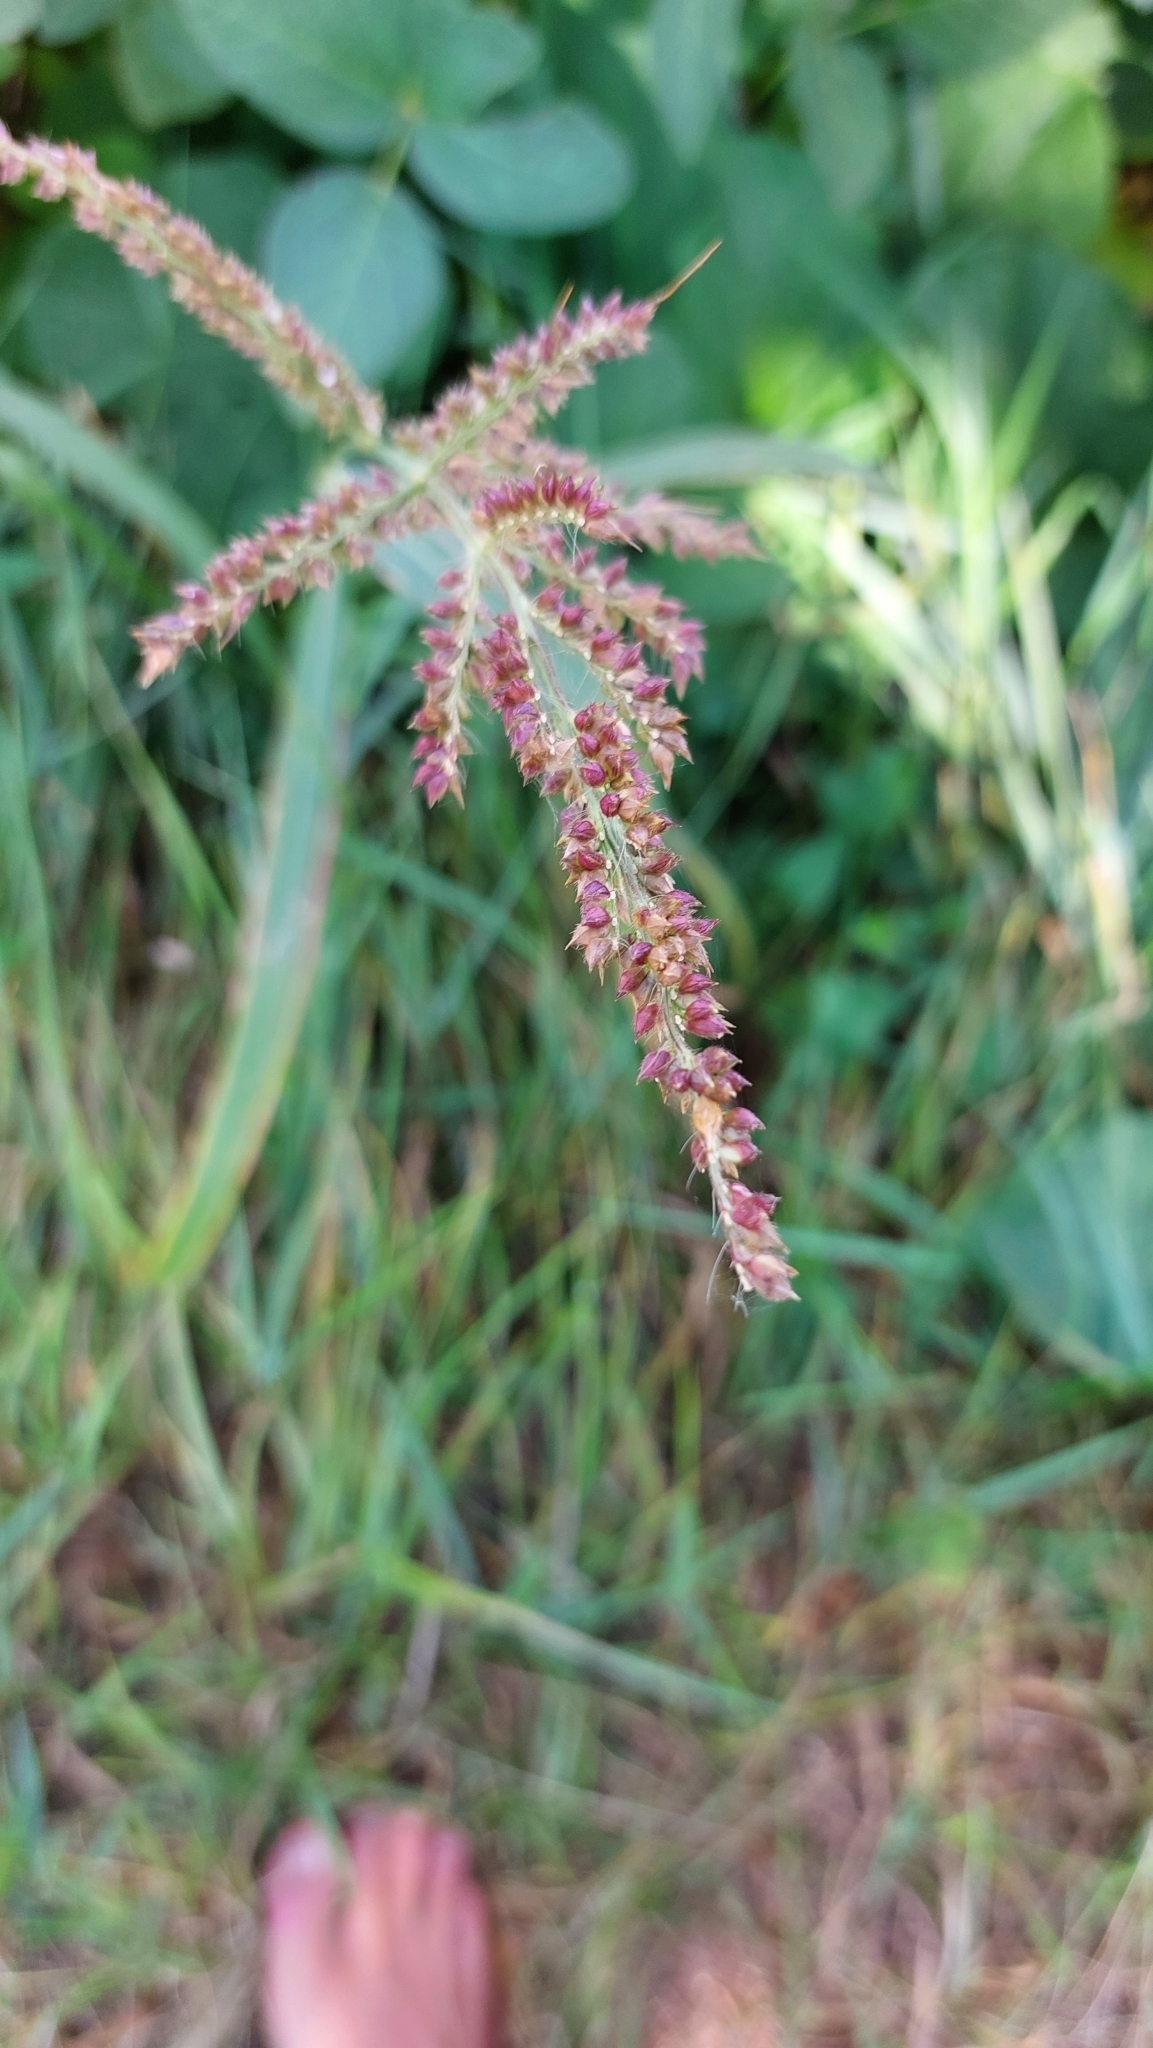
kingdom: Plantae
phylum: Tracheophyta
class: Liliopsida
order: Poales
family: Poaceae
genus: Echinochloa
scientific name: Echinochloa crus-galli
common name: Cockspur
